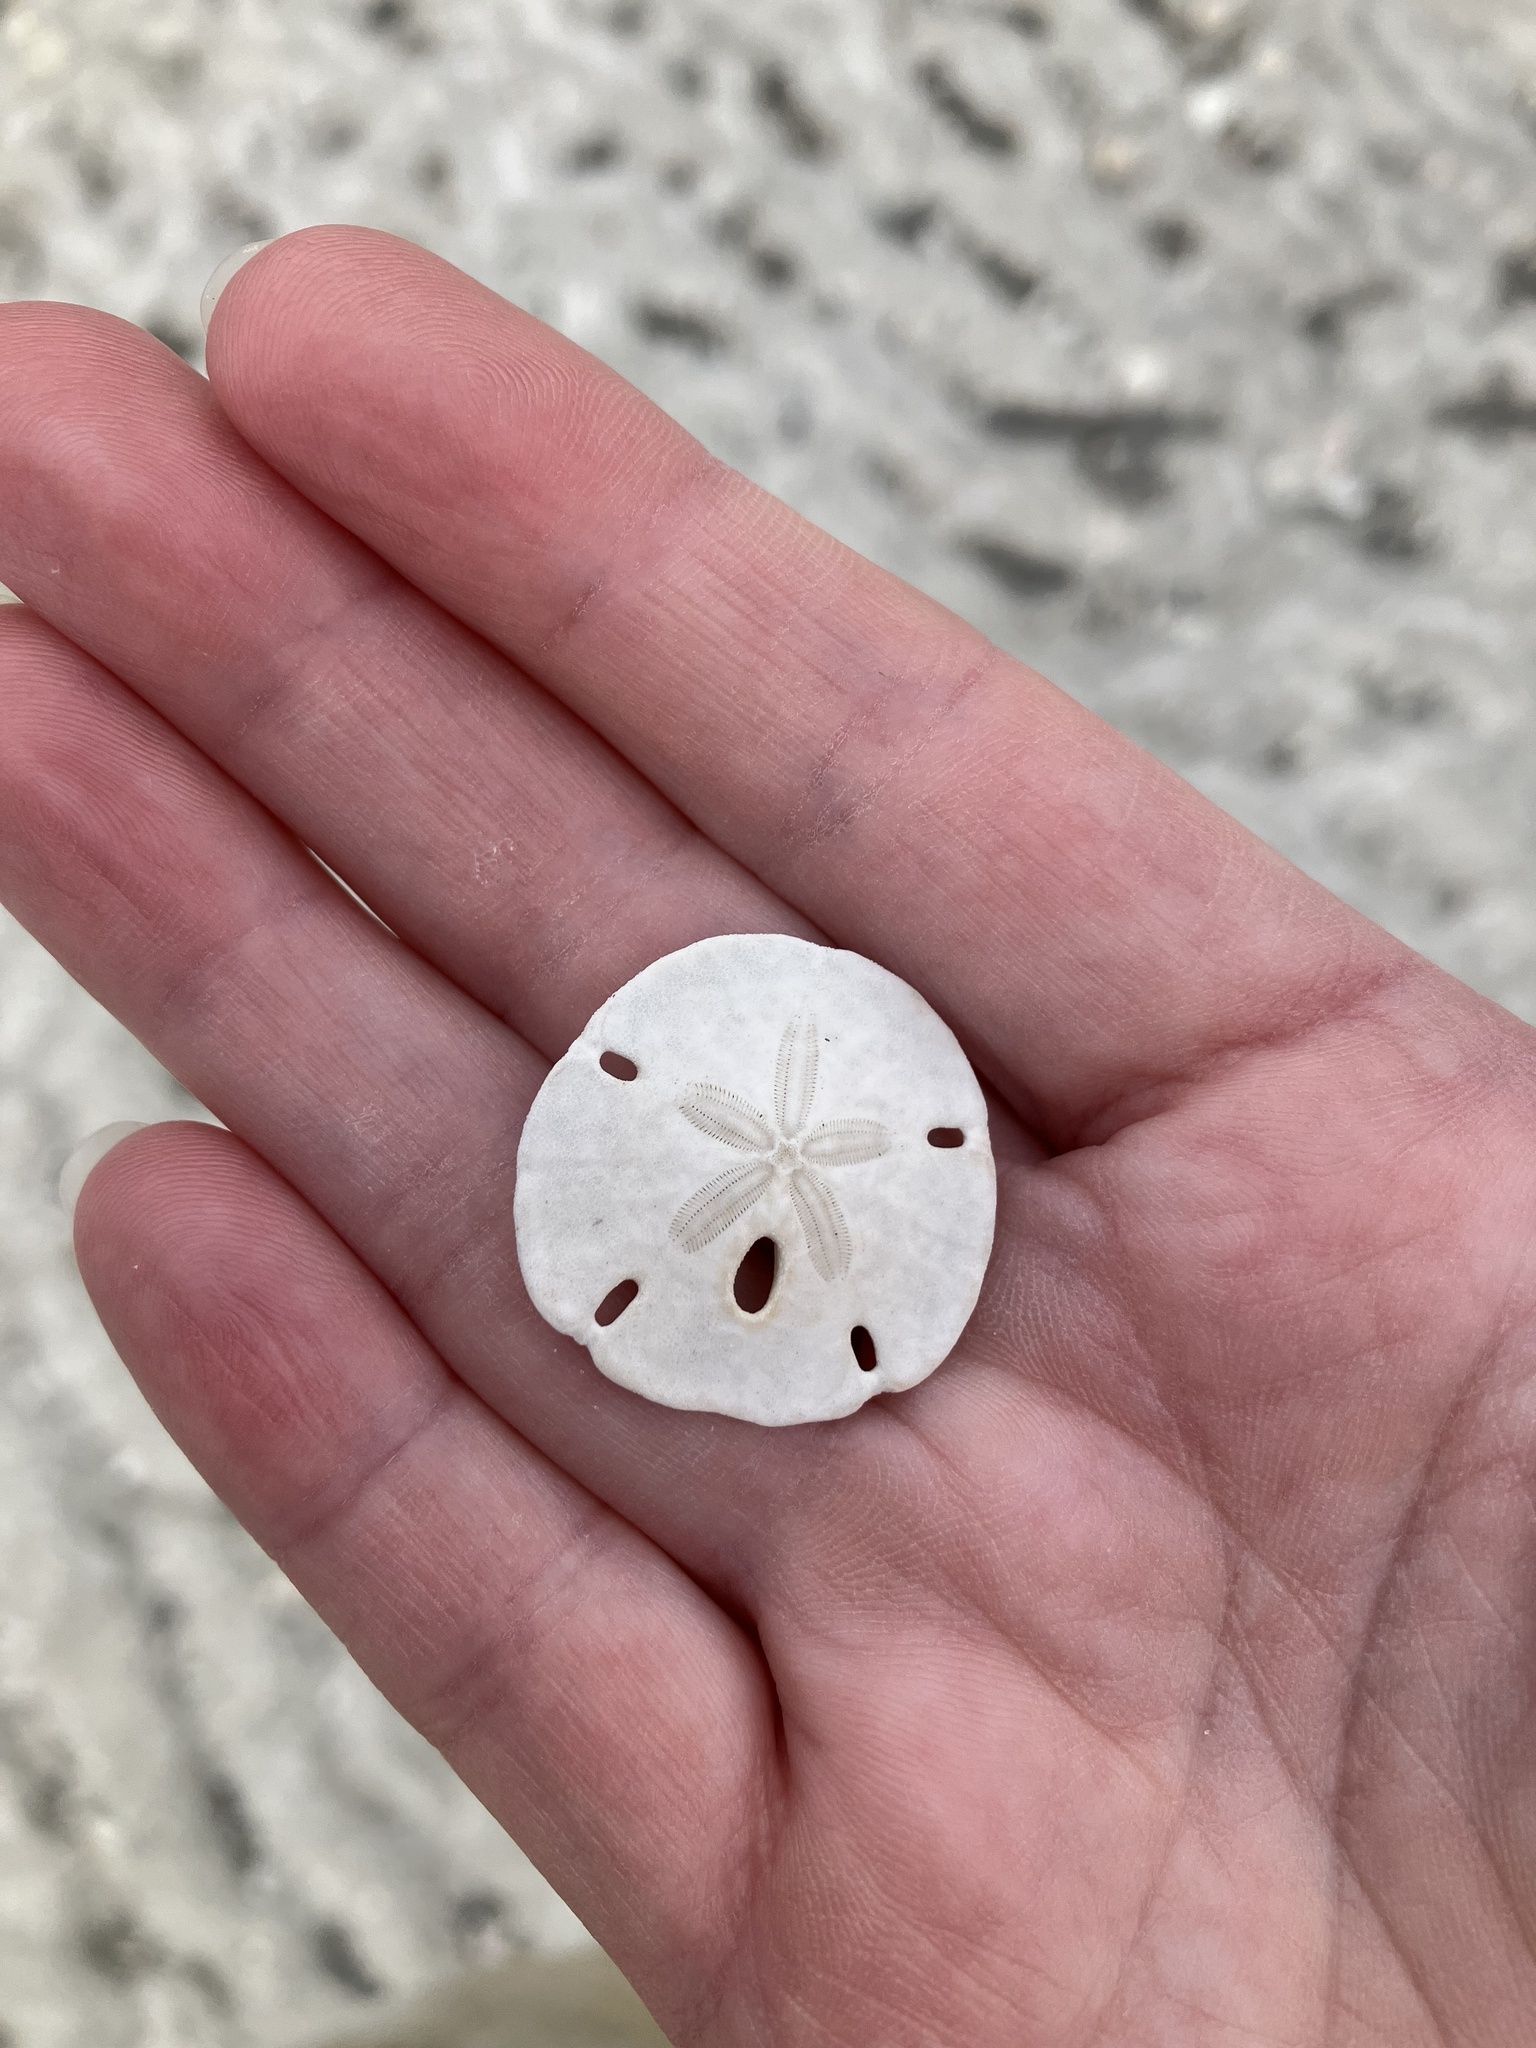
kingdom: Animalia
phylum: Echinodermata
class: Echinoidea
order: Echinolampadacea
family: Mellitidae
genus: Mellita
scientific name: Mellita tenuis
